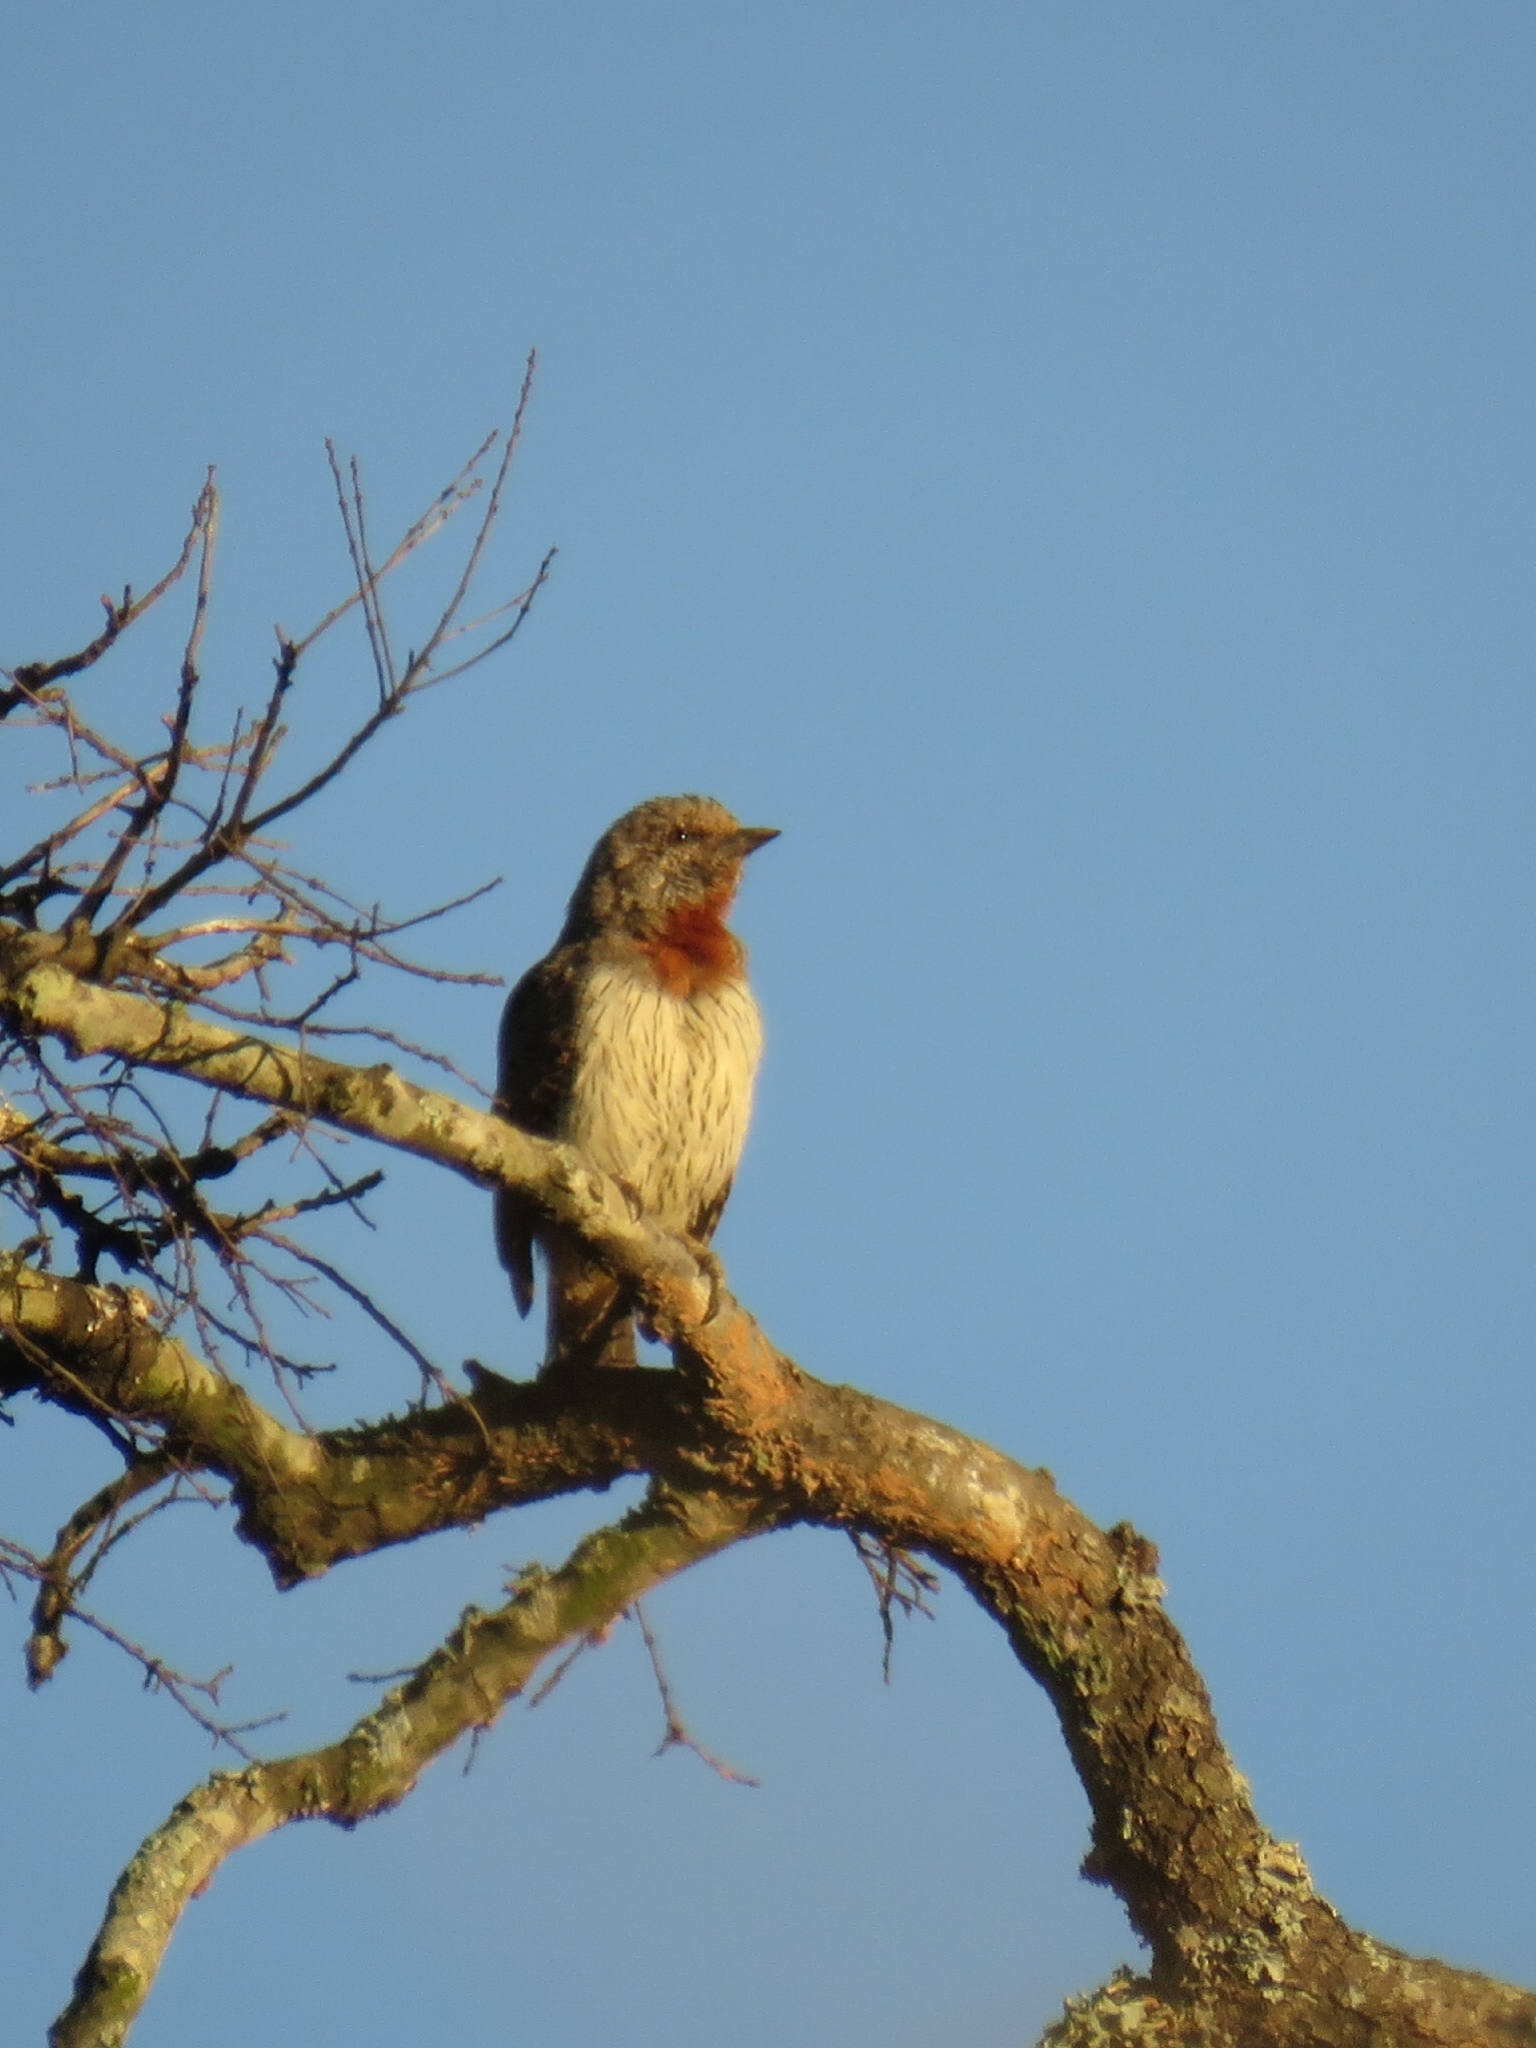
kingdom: Animalia
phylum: Chordata
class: Aves
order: Piciformes
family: Picidae
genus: Jynx
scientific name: Jynx ruficollis
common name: Red-throated wryneck
